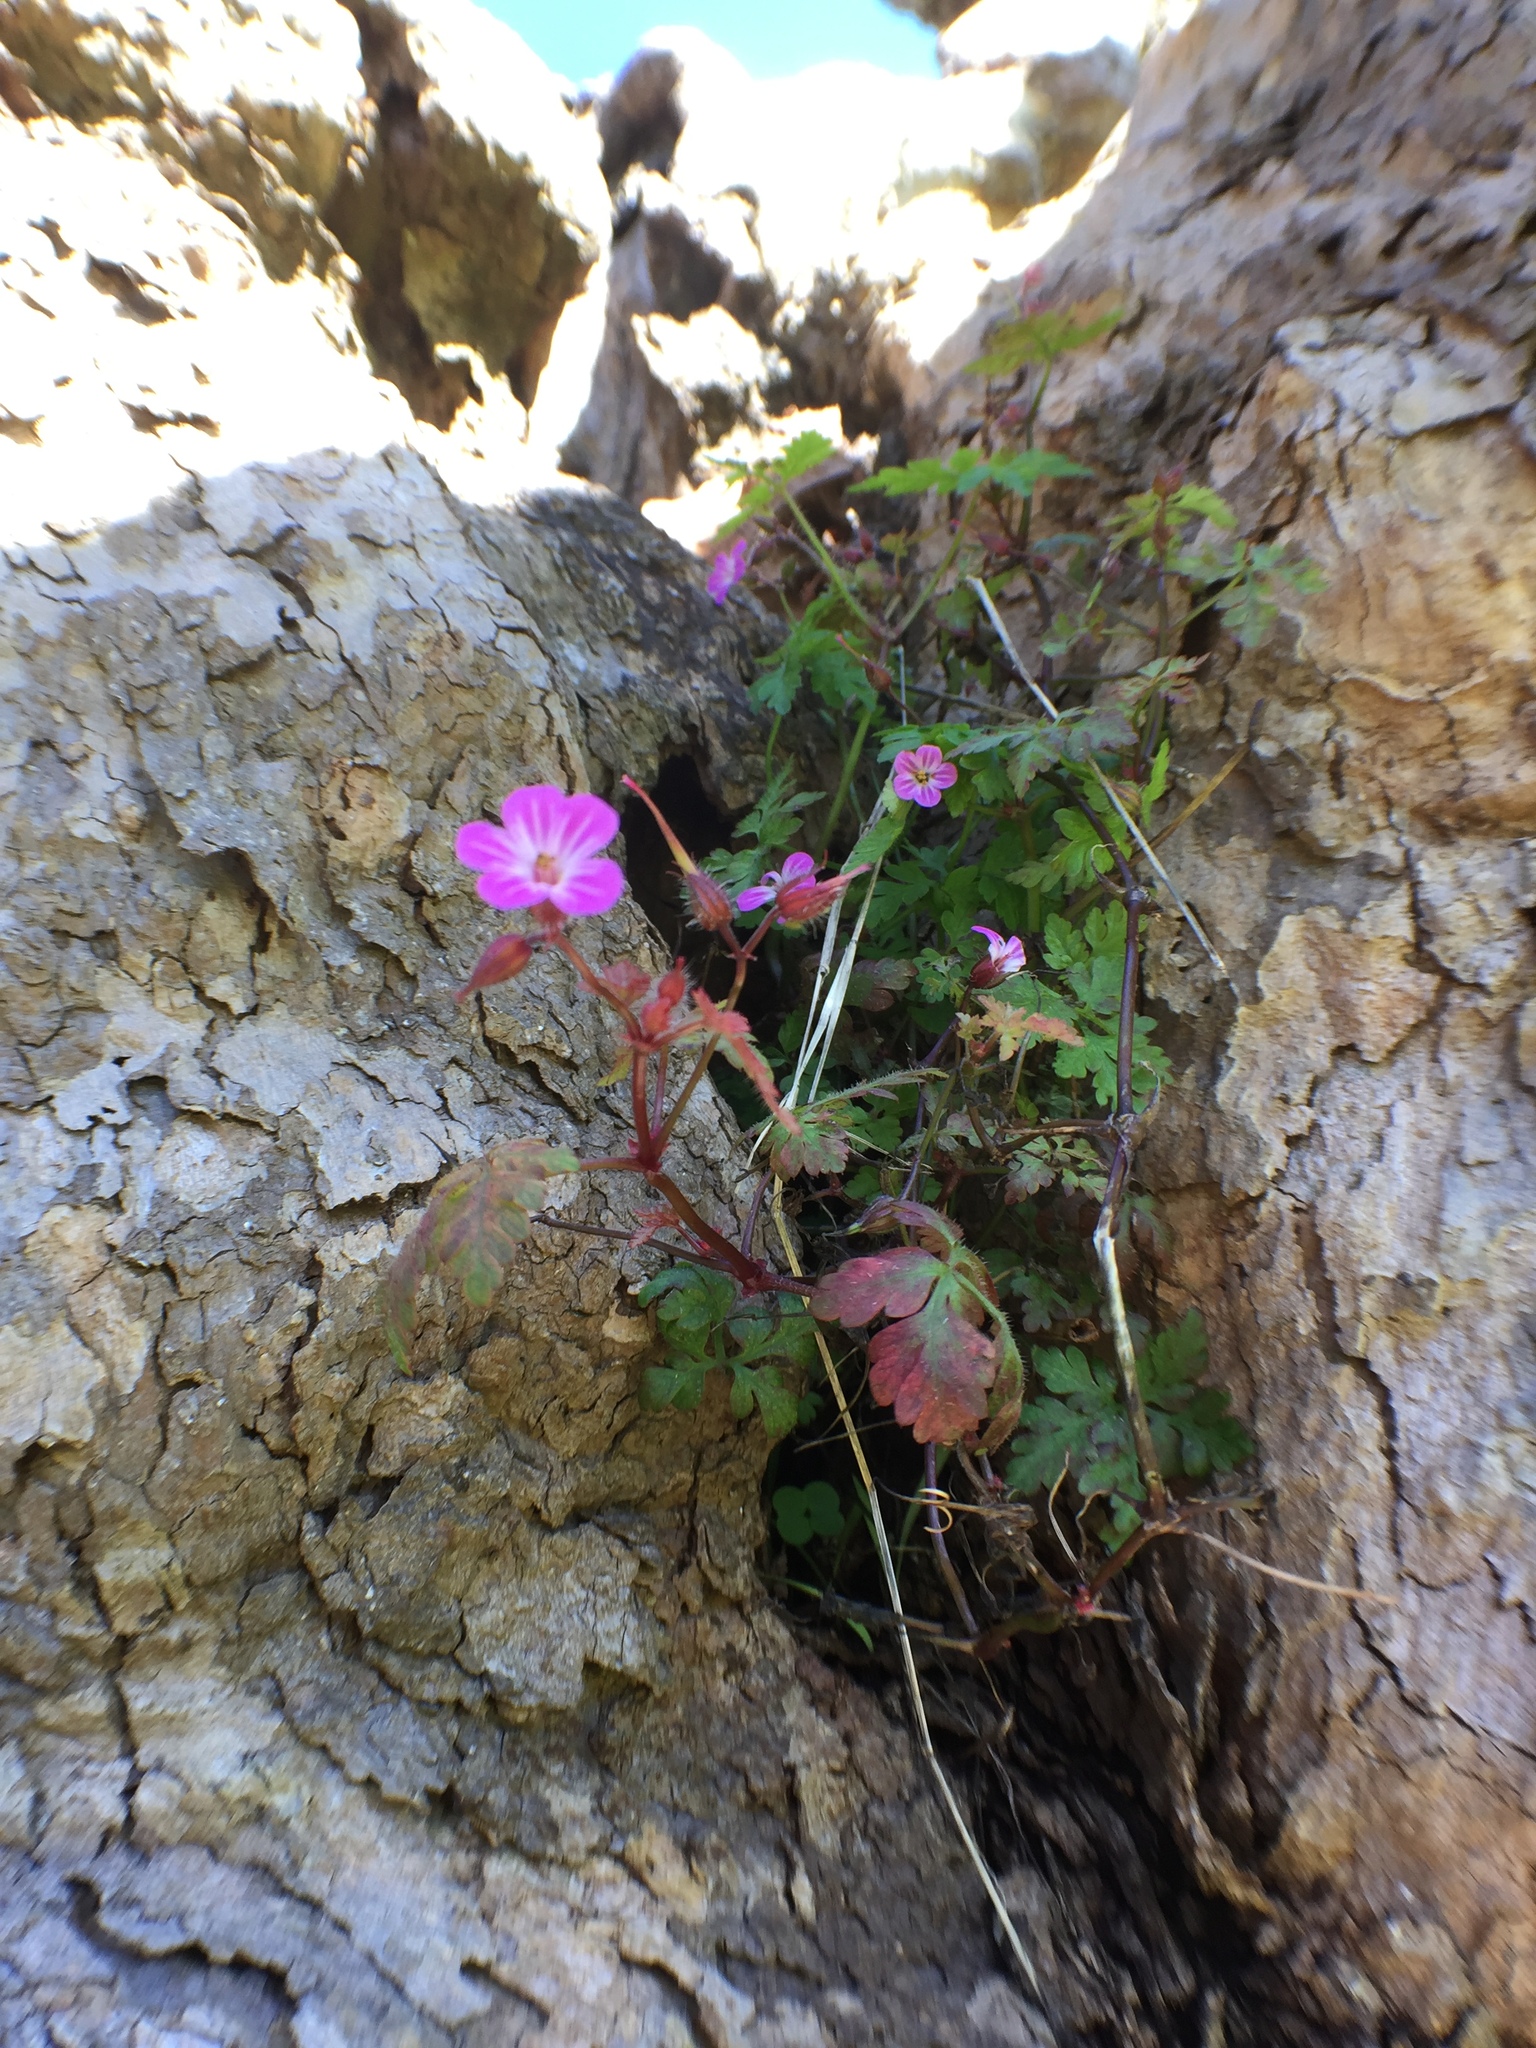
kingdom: Plantae
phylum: Tracheophyta
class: Magnoliopsida
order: Geraniales
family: Geraniaceae
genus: Geranium
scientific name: Geranium robertianum
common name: Herb-robert
